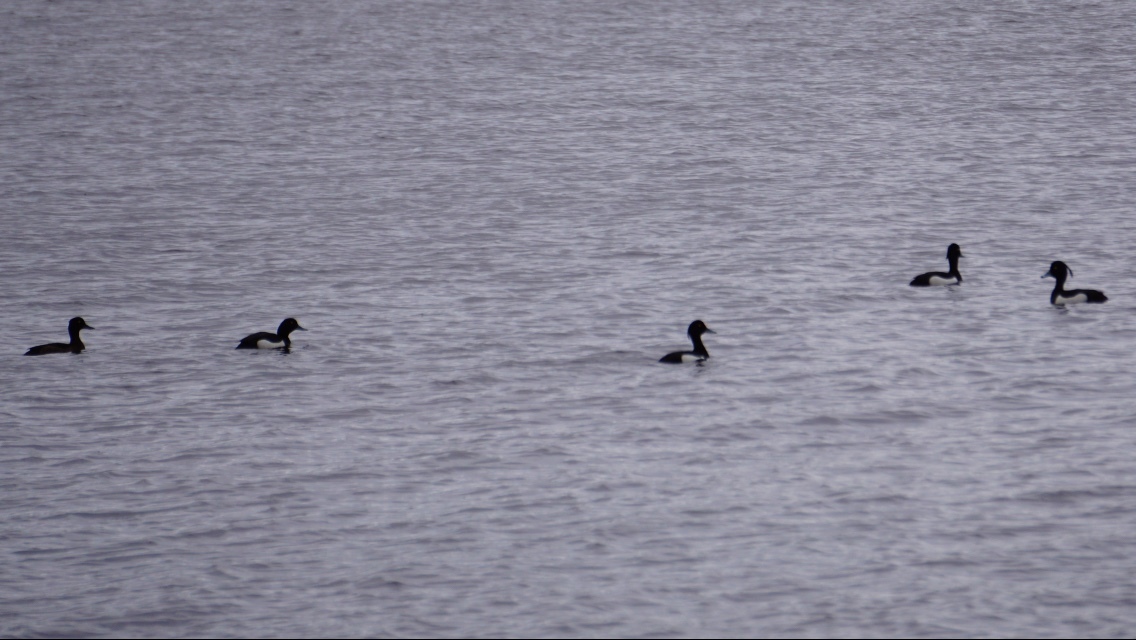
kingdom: Animalia
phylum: Chordata
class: Aves
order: Anseriformes
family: Anatidae
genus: Aythya
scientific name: Aythya fuligula
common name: Tufted duck
